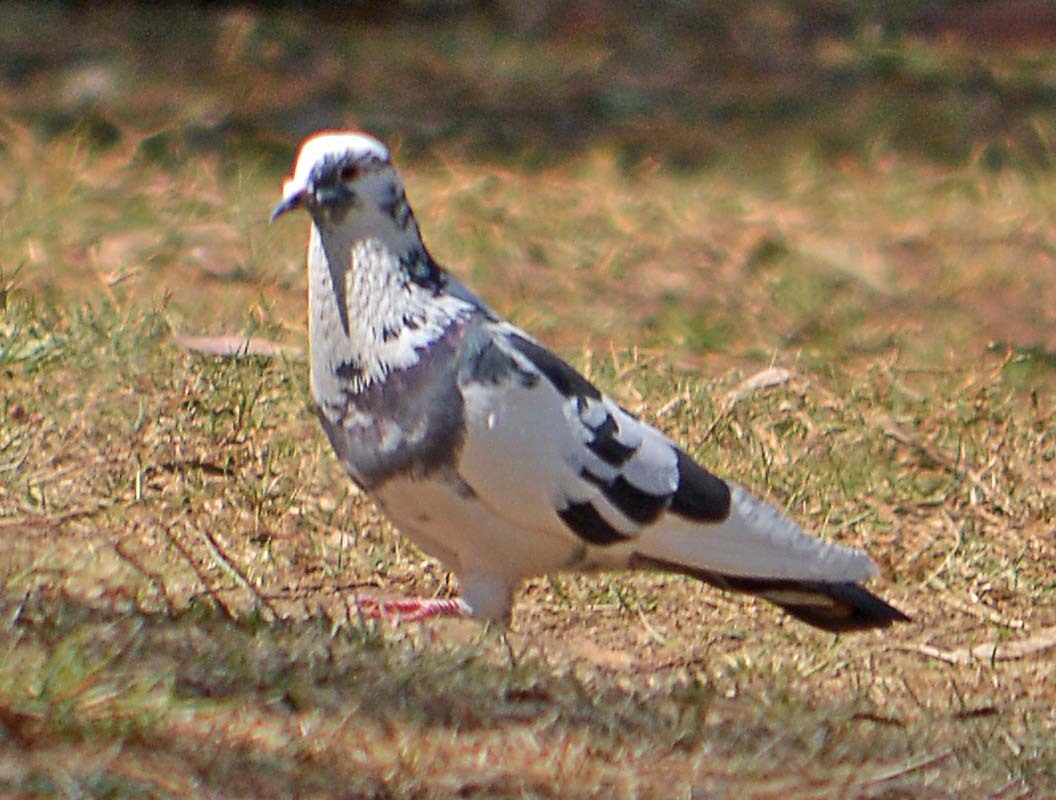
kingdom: Animalia
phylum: Chordata
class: Aves
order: Columbiformes
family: Columbidae
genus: Columba
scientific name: Columba livia
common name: Rock pigeon
